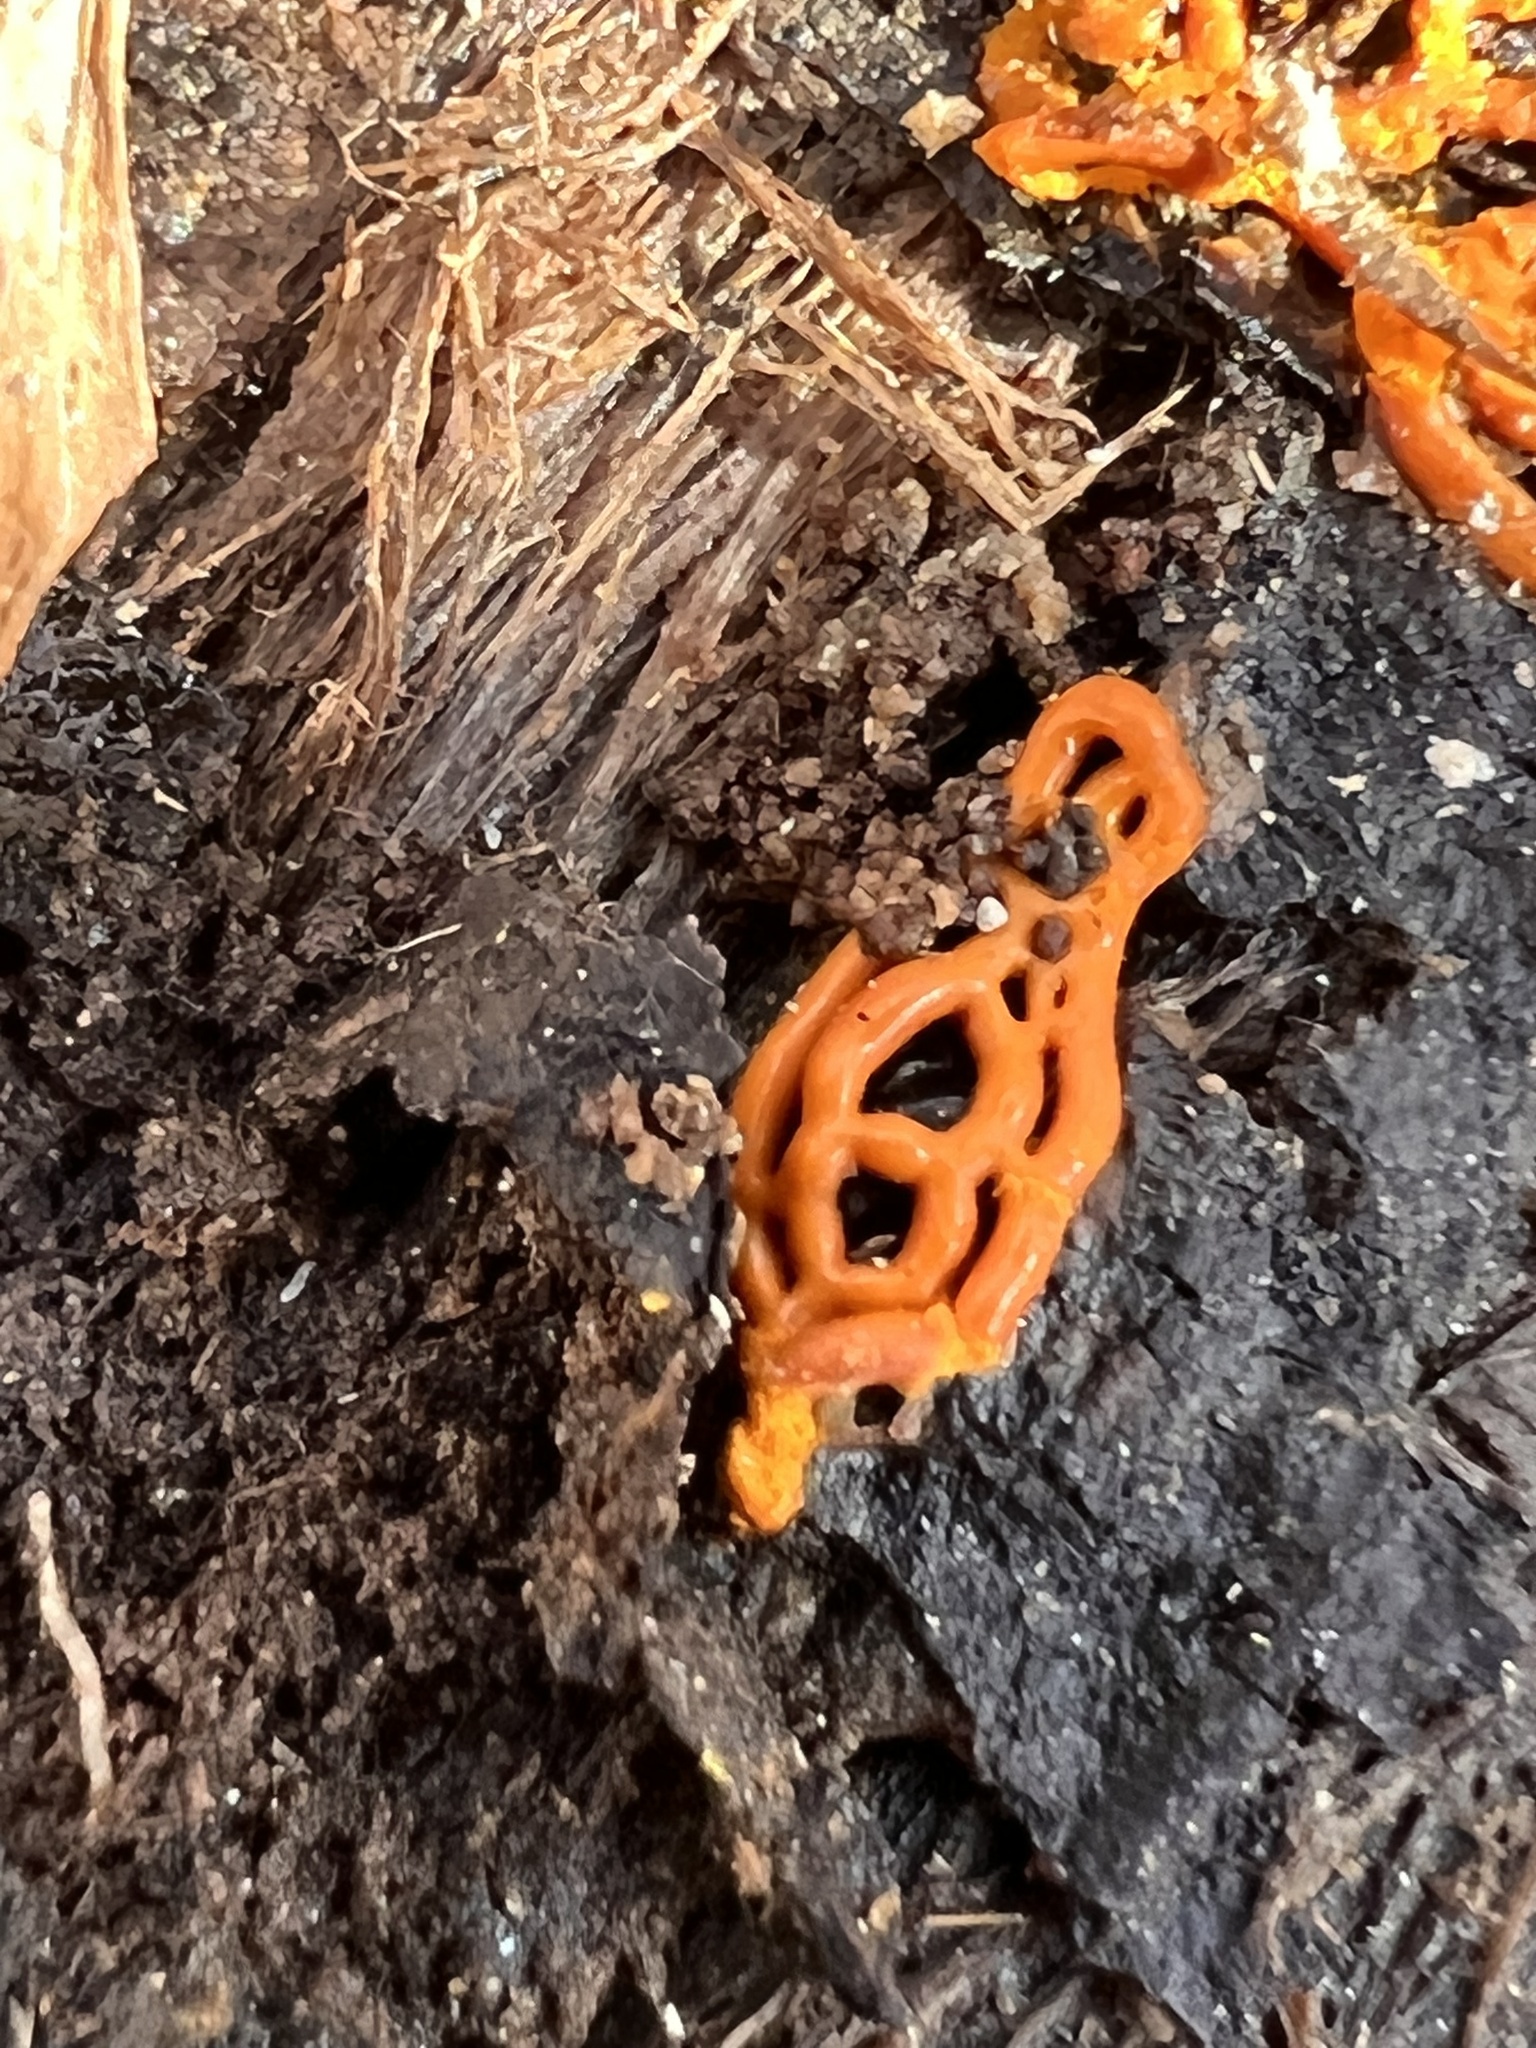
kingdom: Protozoa
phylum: Mycetozoa
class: Myxomycetes
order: Trichiales
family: Arcyriaceae
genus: Hemitrichia
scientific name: Hemitrichia serpula
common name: Pretzel slime mold
